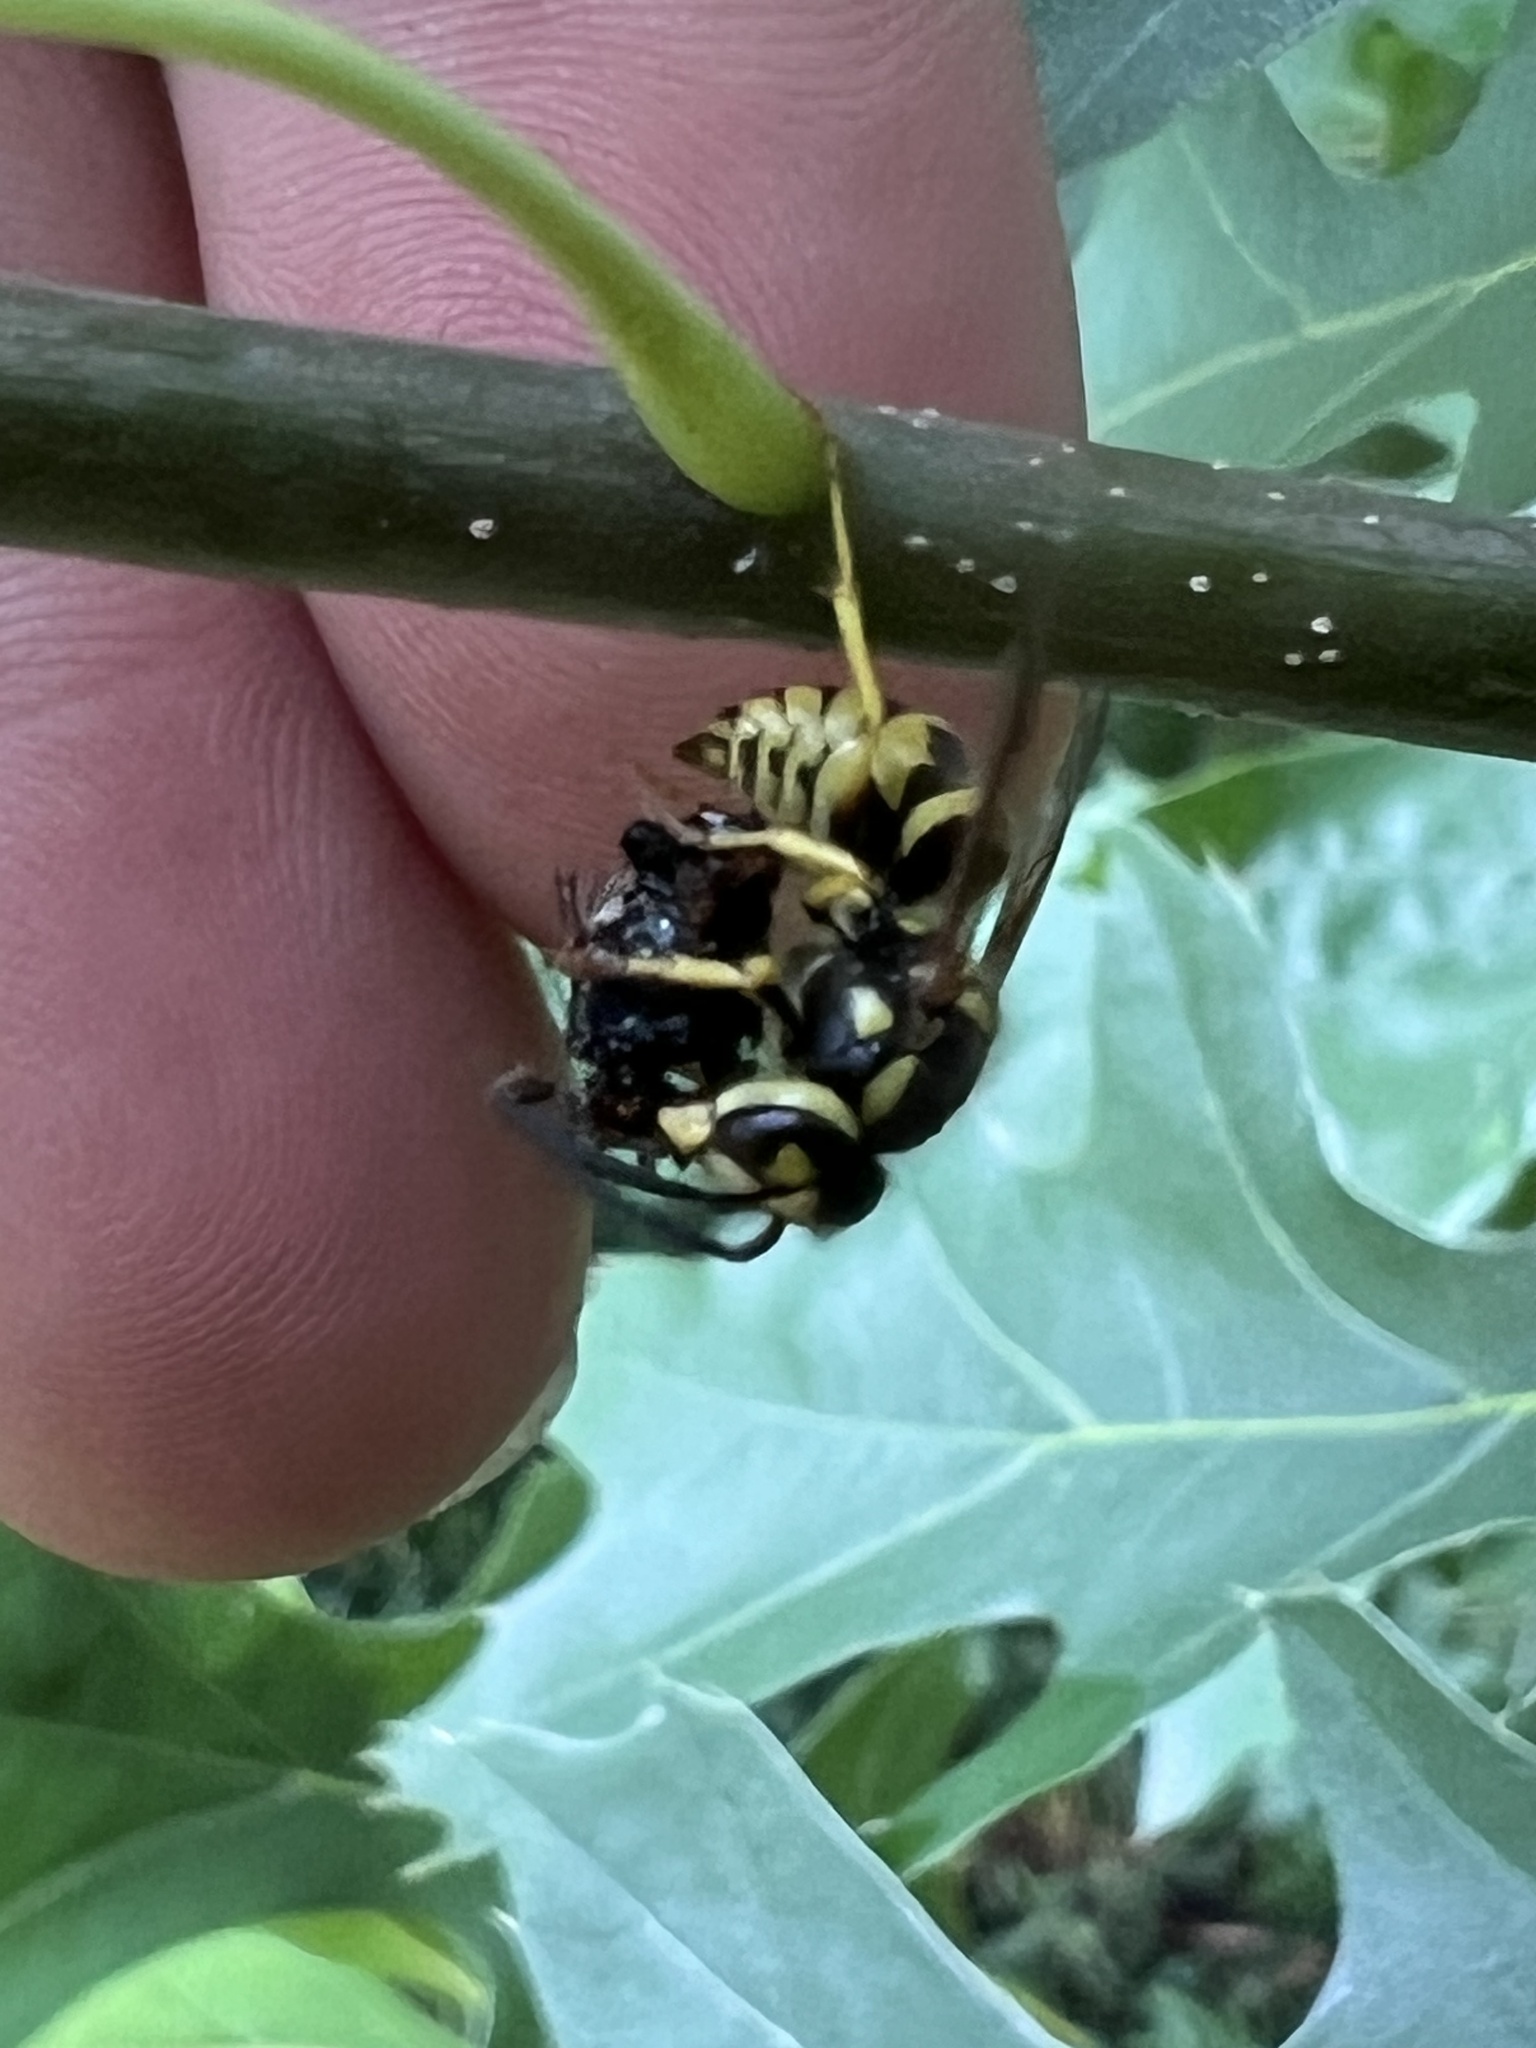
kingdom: Animalia
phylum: Arthropoda
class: Insecta
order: Hymenoptera
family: Vespidae
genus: Vespula
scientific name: Vespula maculifrons
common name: Eastern yellowjacket
